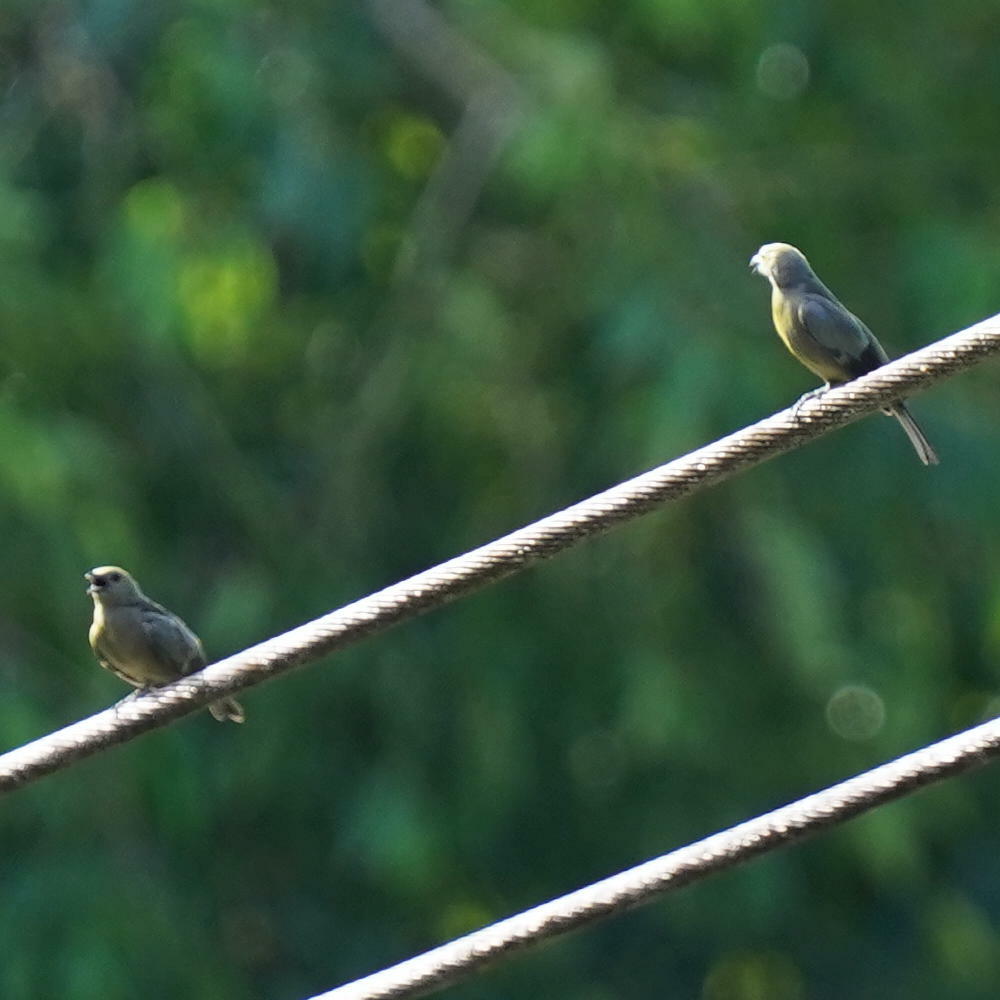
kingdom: Animalia
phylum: Chordata
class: Aves
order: Passeriformes
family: Thraupidae
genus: Thraupis
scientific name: Thraupis palmarum
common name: Palm tanager
